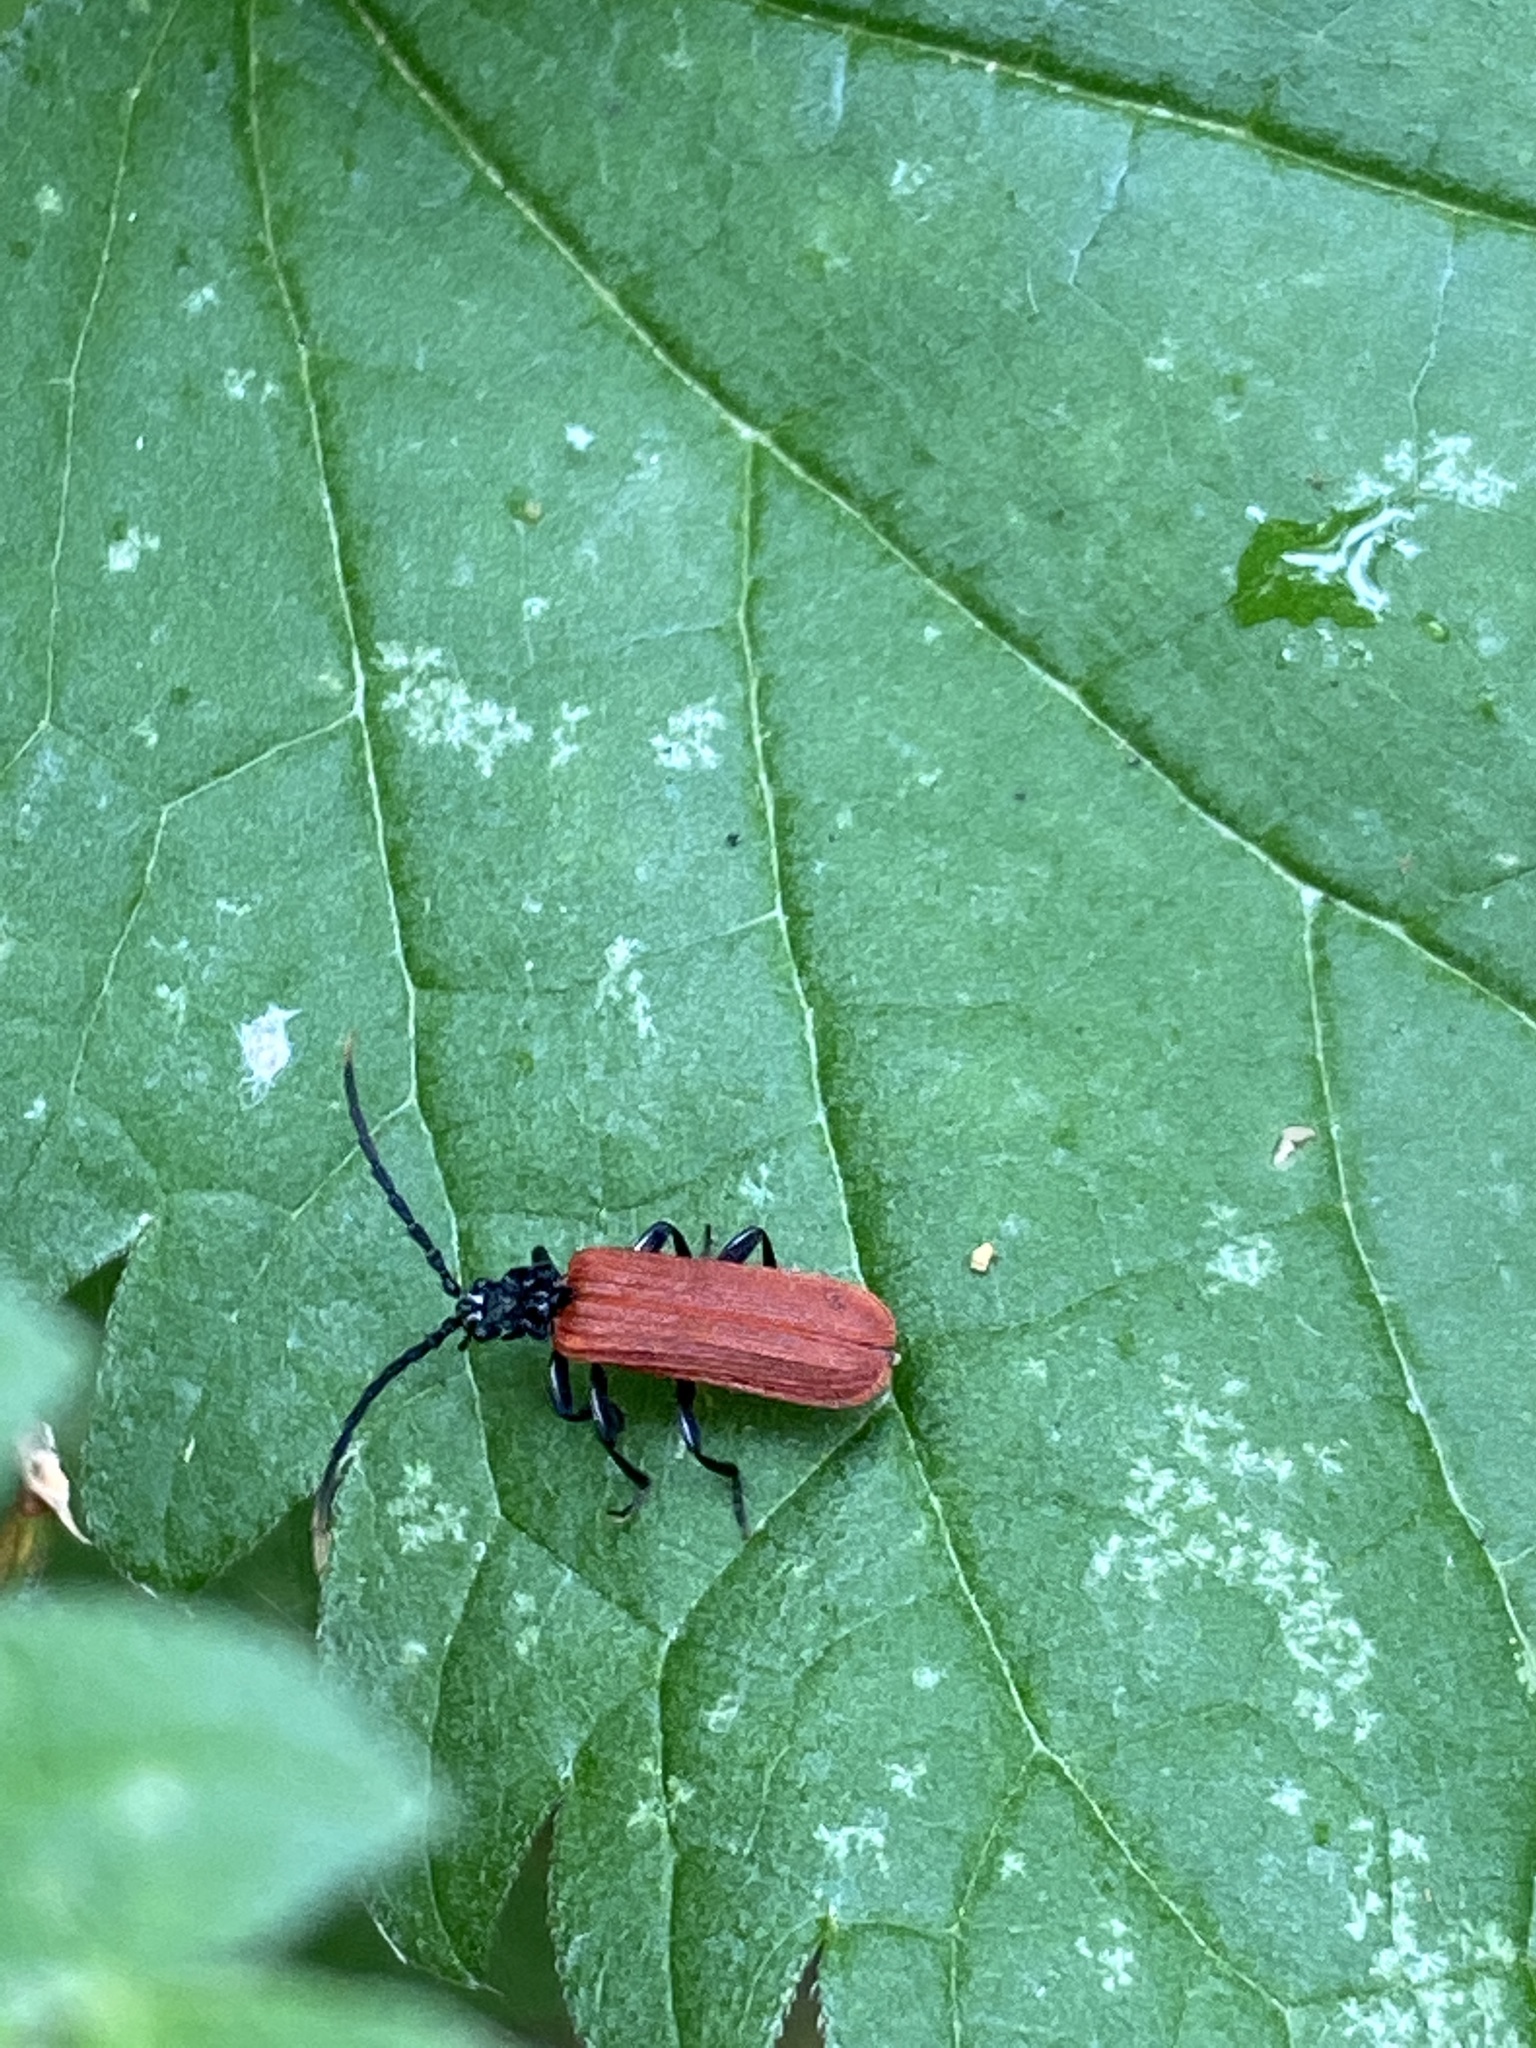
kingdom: Animalia
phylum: Arthropoda
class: Insecta
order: Coleoptera
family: Lycidae
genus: Platycis
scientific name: Platycis minutus
